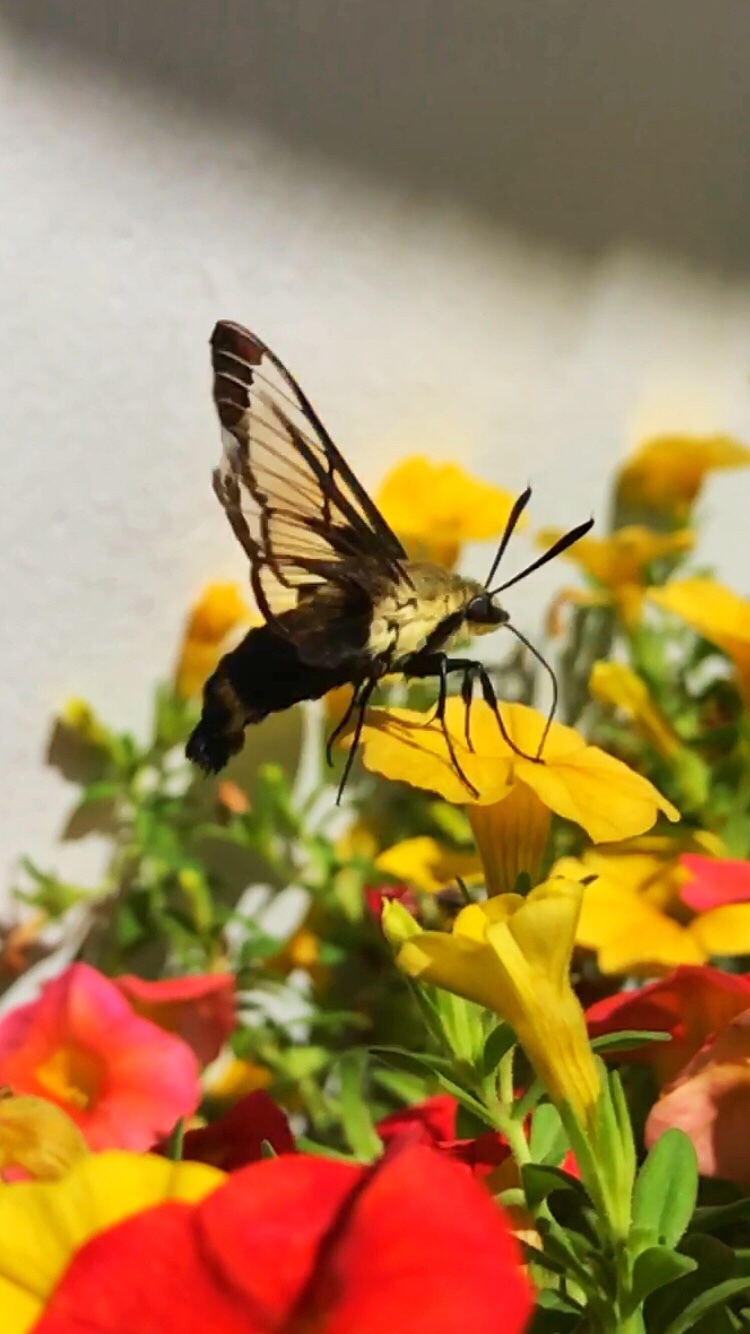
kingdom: Animalia
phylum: Arthropoda
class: Insecta
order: Lepidoptera
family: Sphingidae
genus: Hemaris
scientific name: Hemaris diffinis
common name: Bumblebee moth
